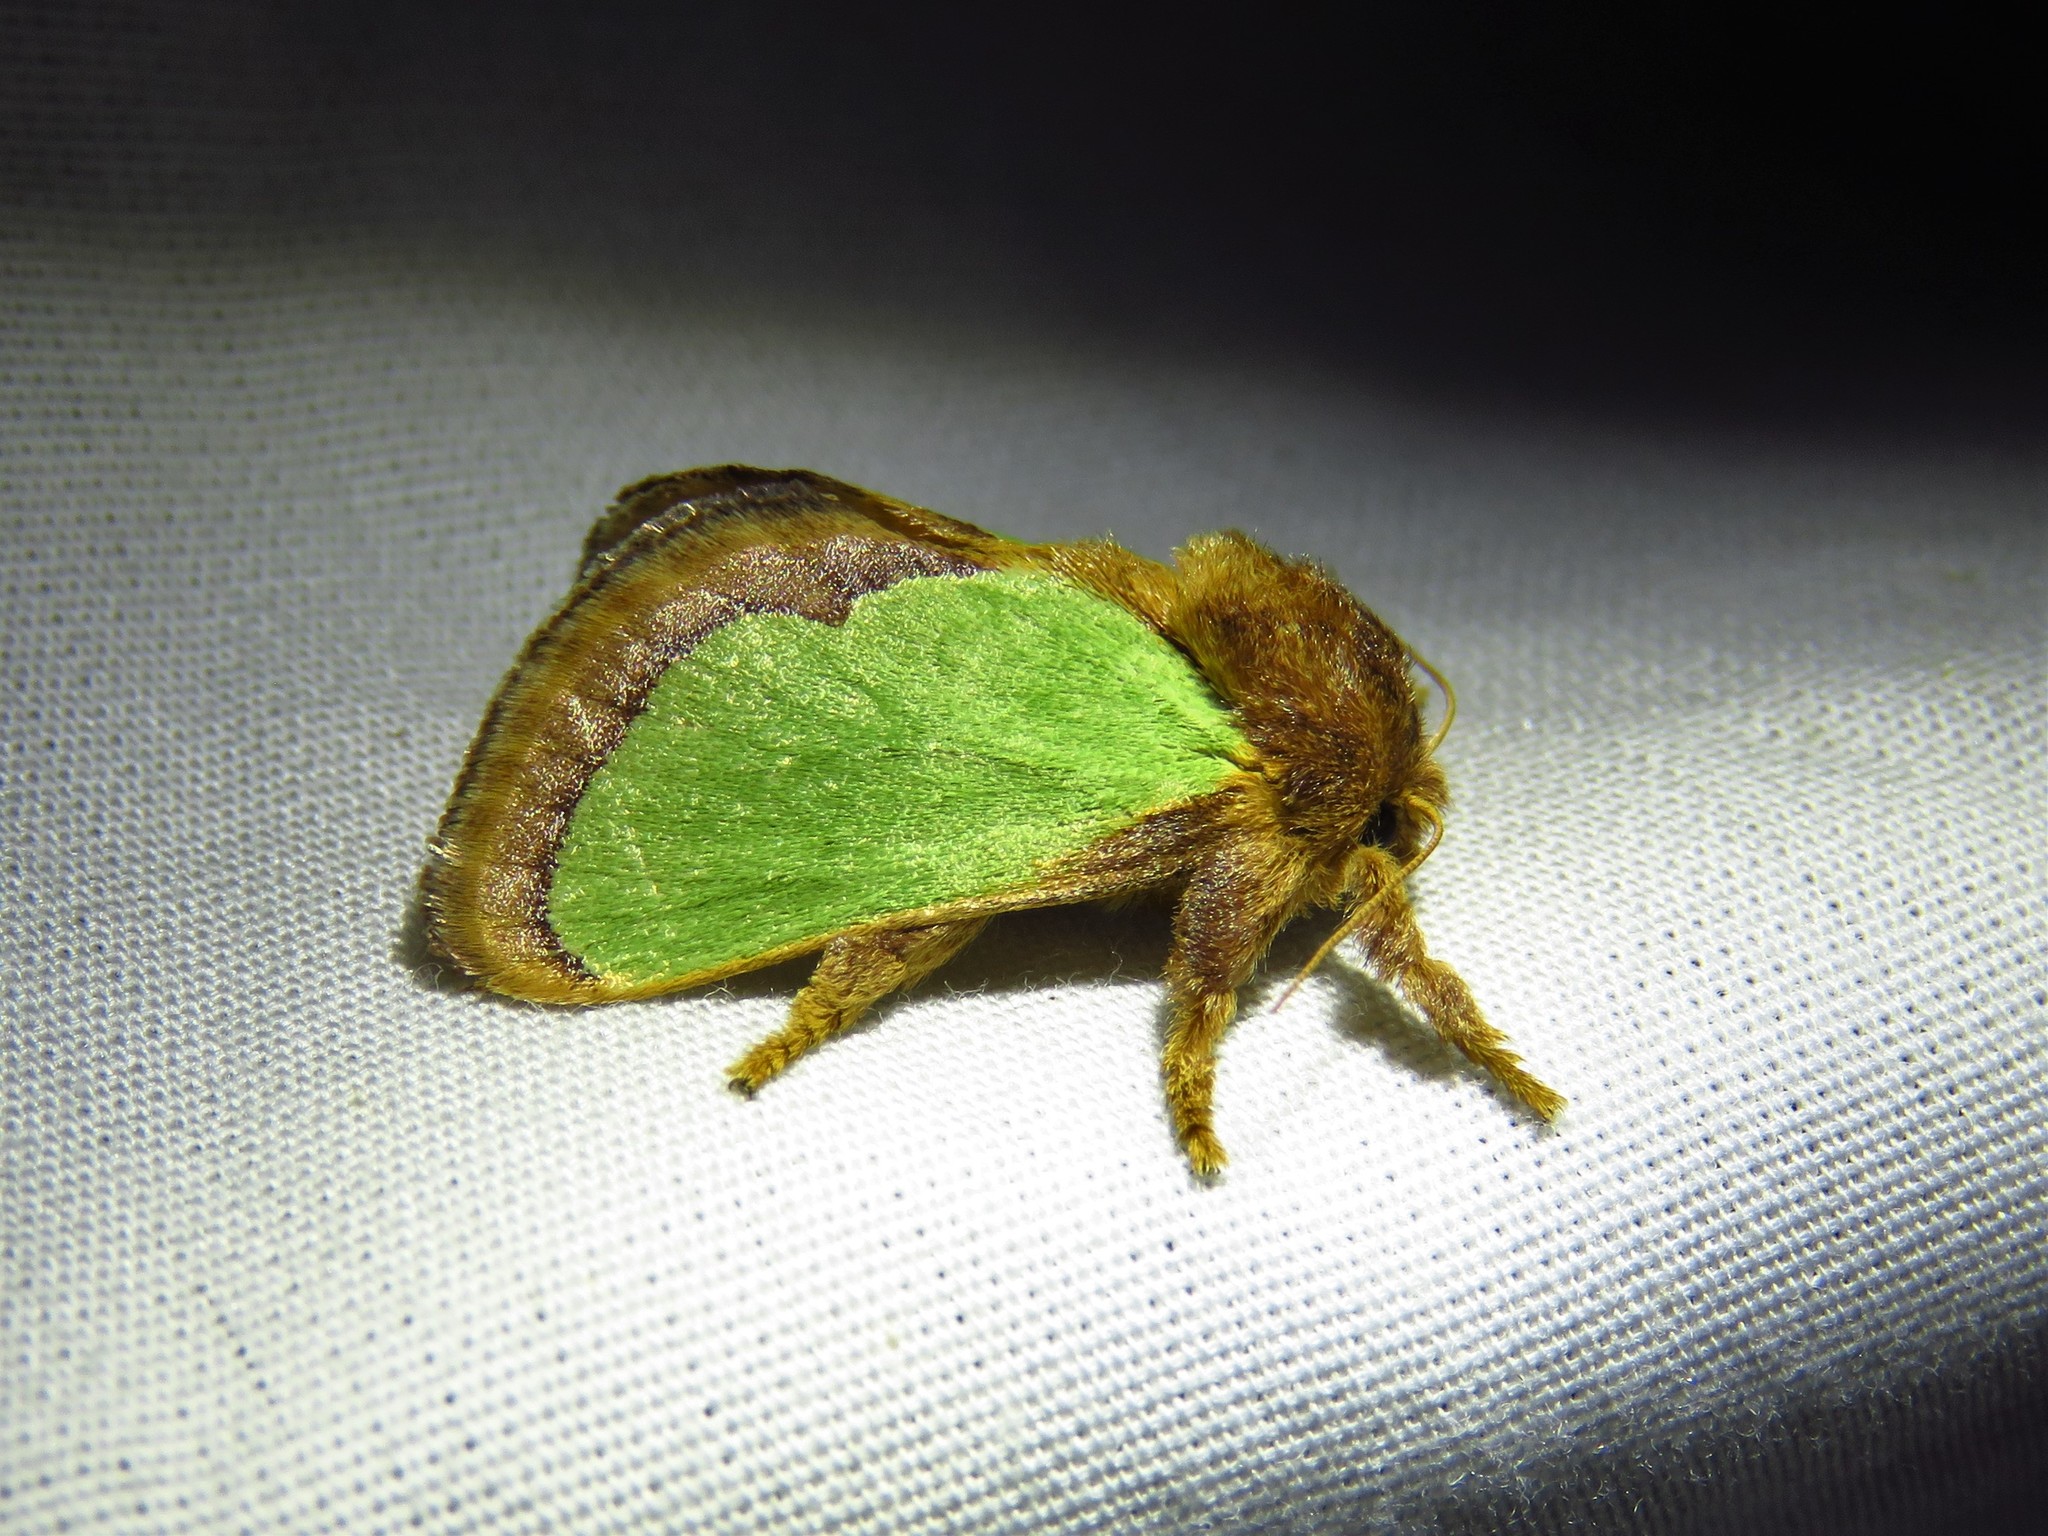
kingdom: Animalia
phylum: Arthropoda
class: Insecta
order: Lepidoptera
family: Limacodidae
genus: Euclea
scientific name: Euclea incisa
